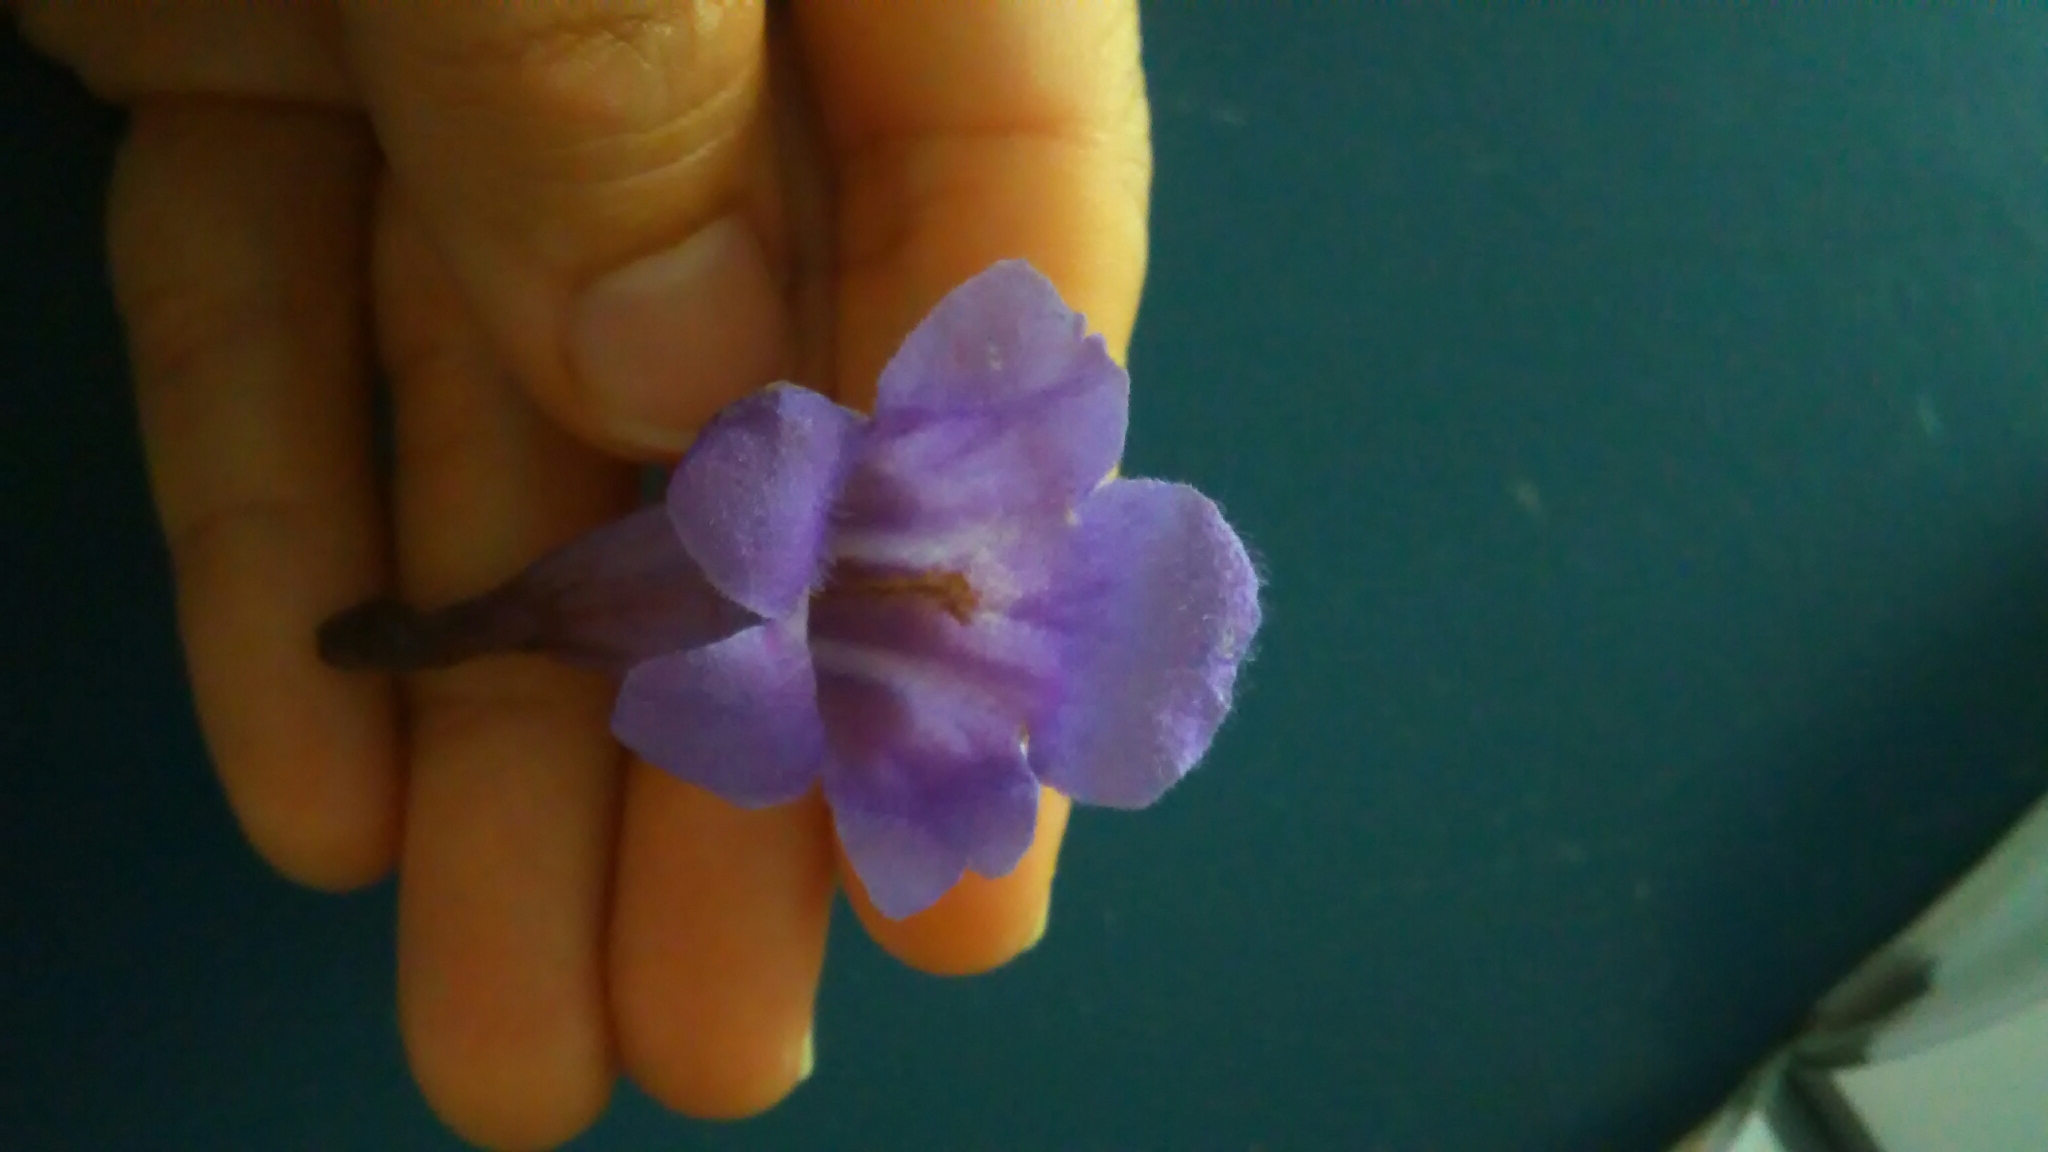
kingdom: Plantae
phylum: Tracheophyta
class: Magnoliopsida
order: Lamiales
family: Bignoniaceae
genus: Jacaranda
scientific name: Jacaranda mimosifolia
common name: Black poui
